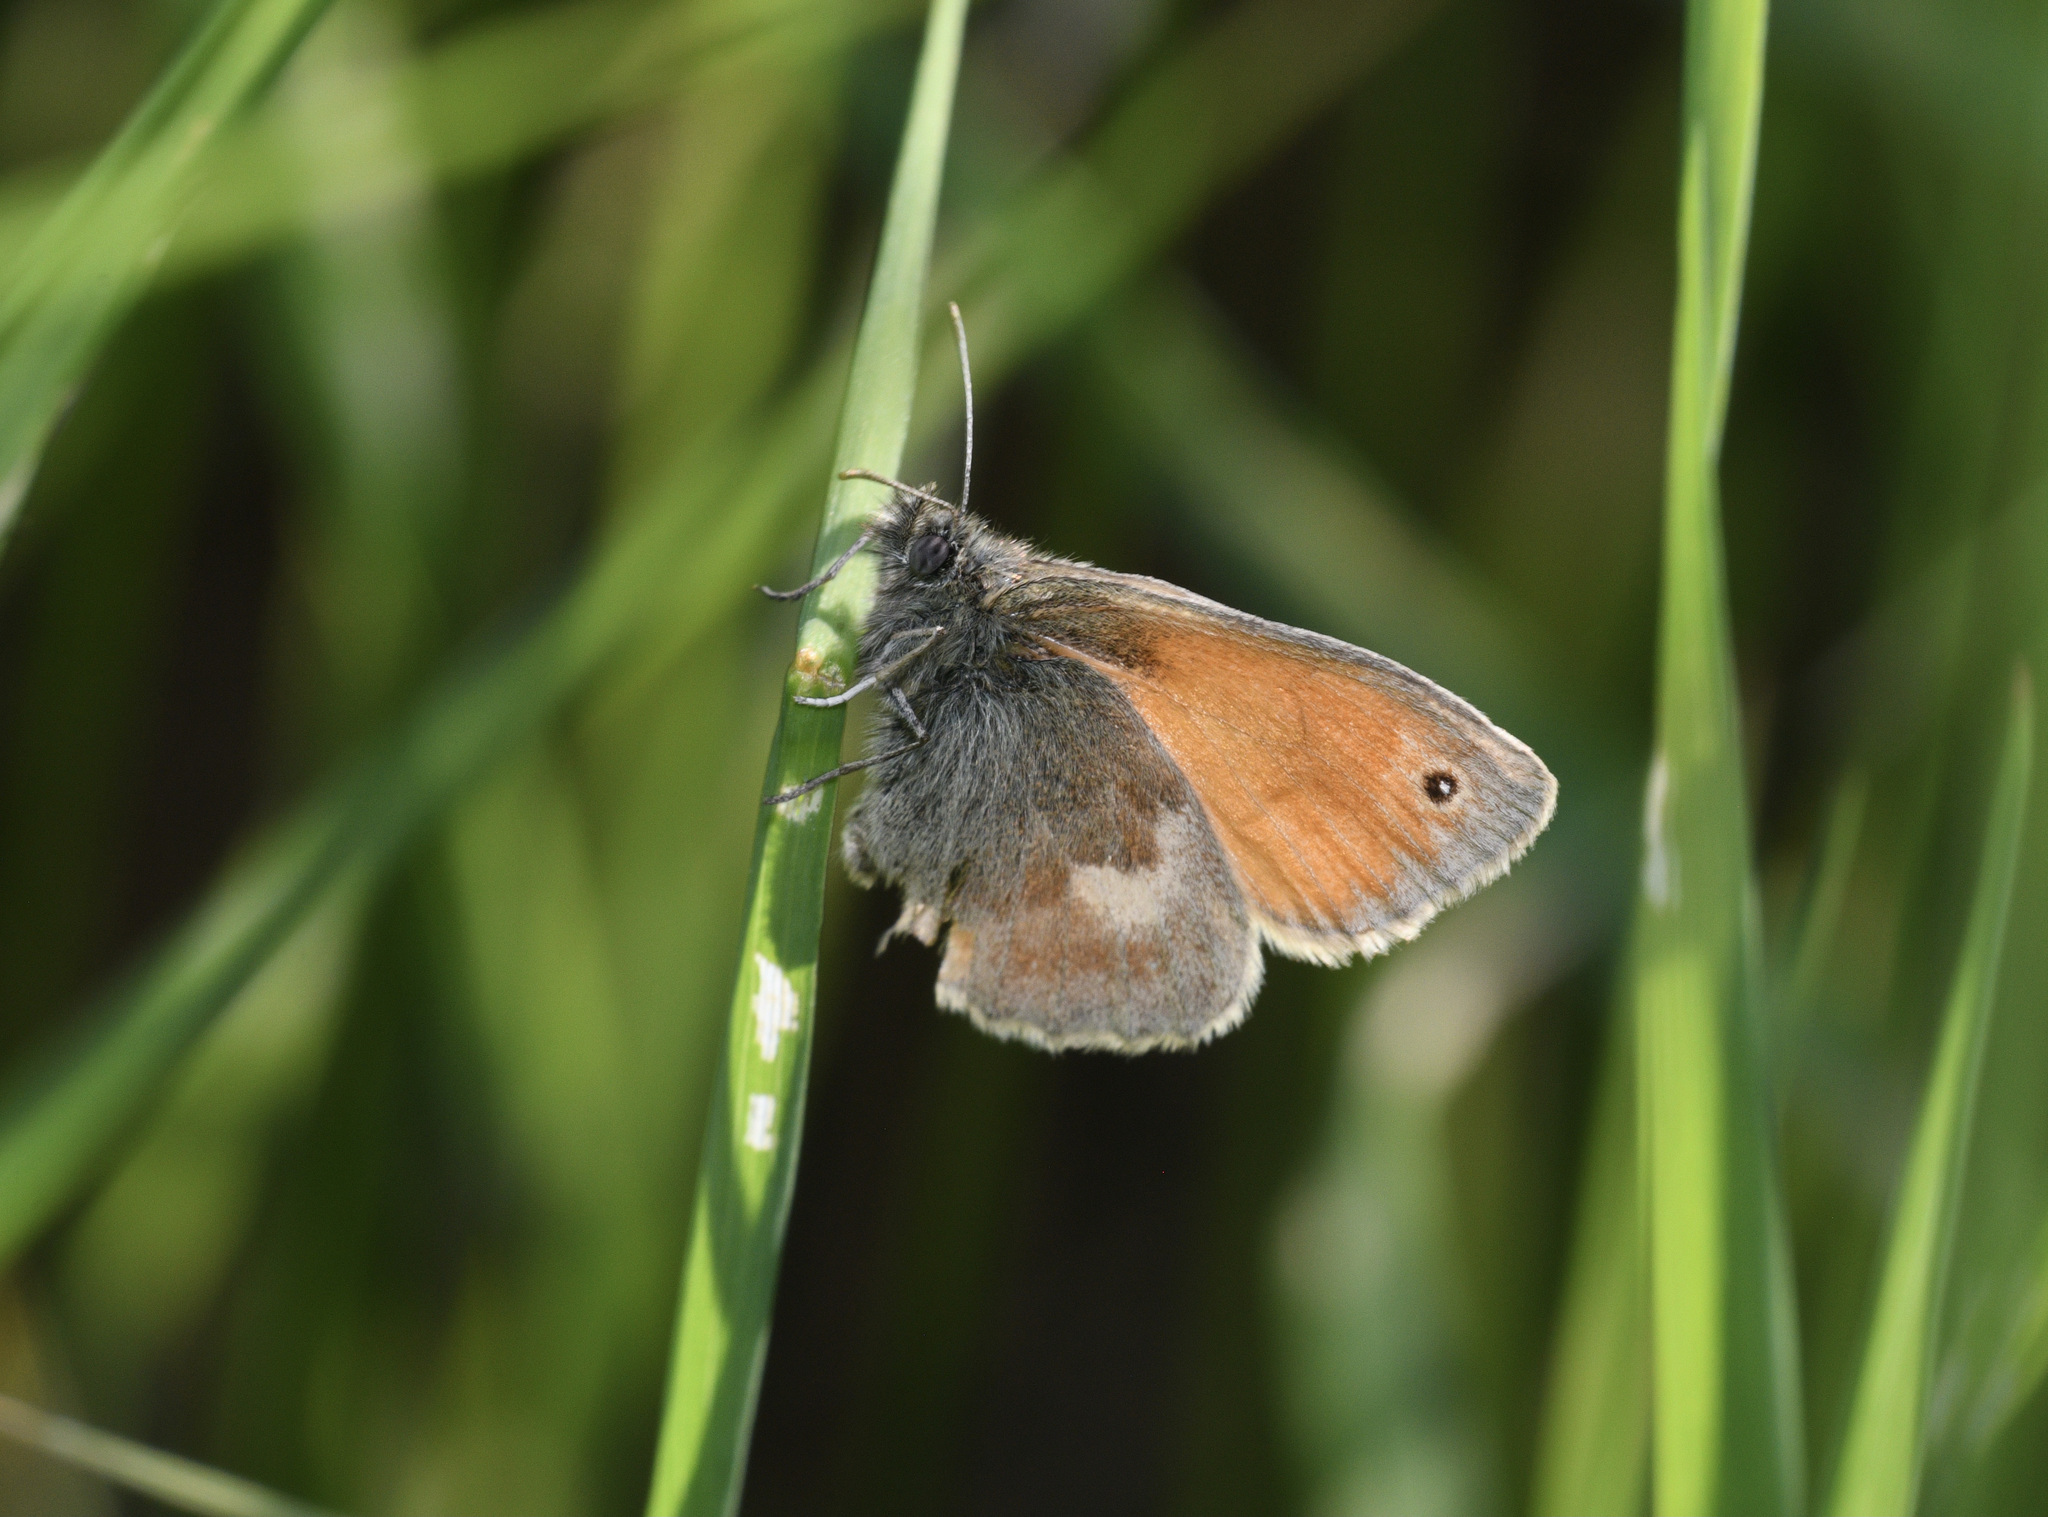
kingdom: Animalia
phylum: Arthropoda
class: Insecta
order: Lepidoptera
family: Nymphalidae
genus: Coenonympha
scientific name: Coenonympha pamphilus
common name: Small heath
